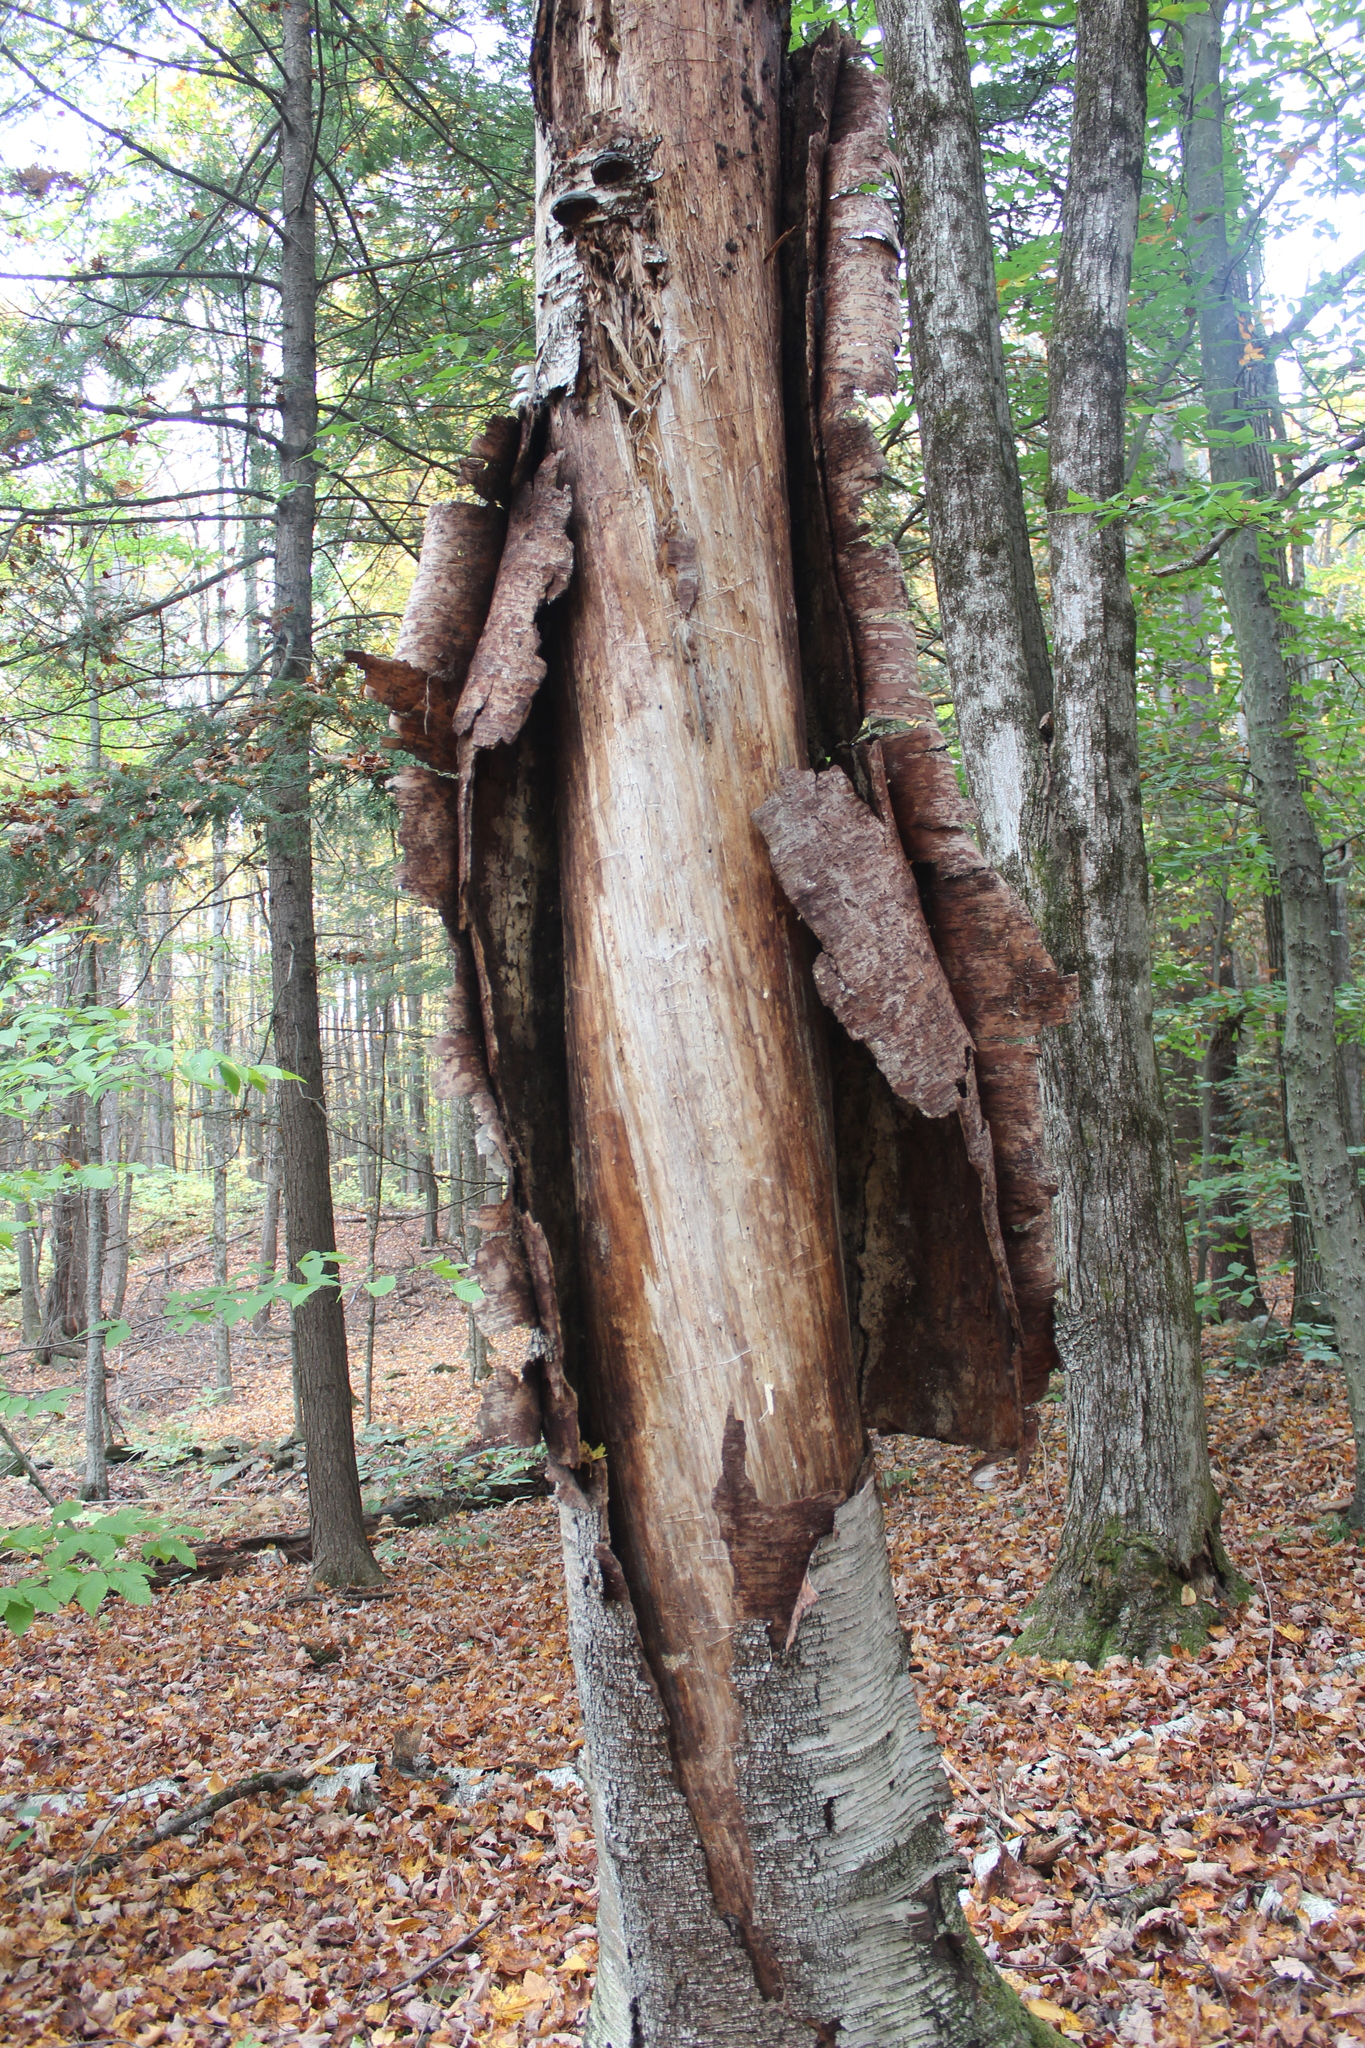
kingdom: Plantae
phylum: Tracheophyta
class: Magnoliopsida
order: Fagales
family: Betulaceae
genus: Betula
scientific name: Betula papyrifera
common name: Paper birch
